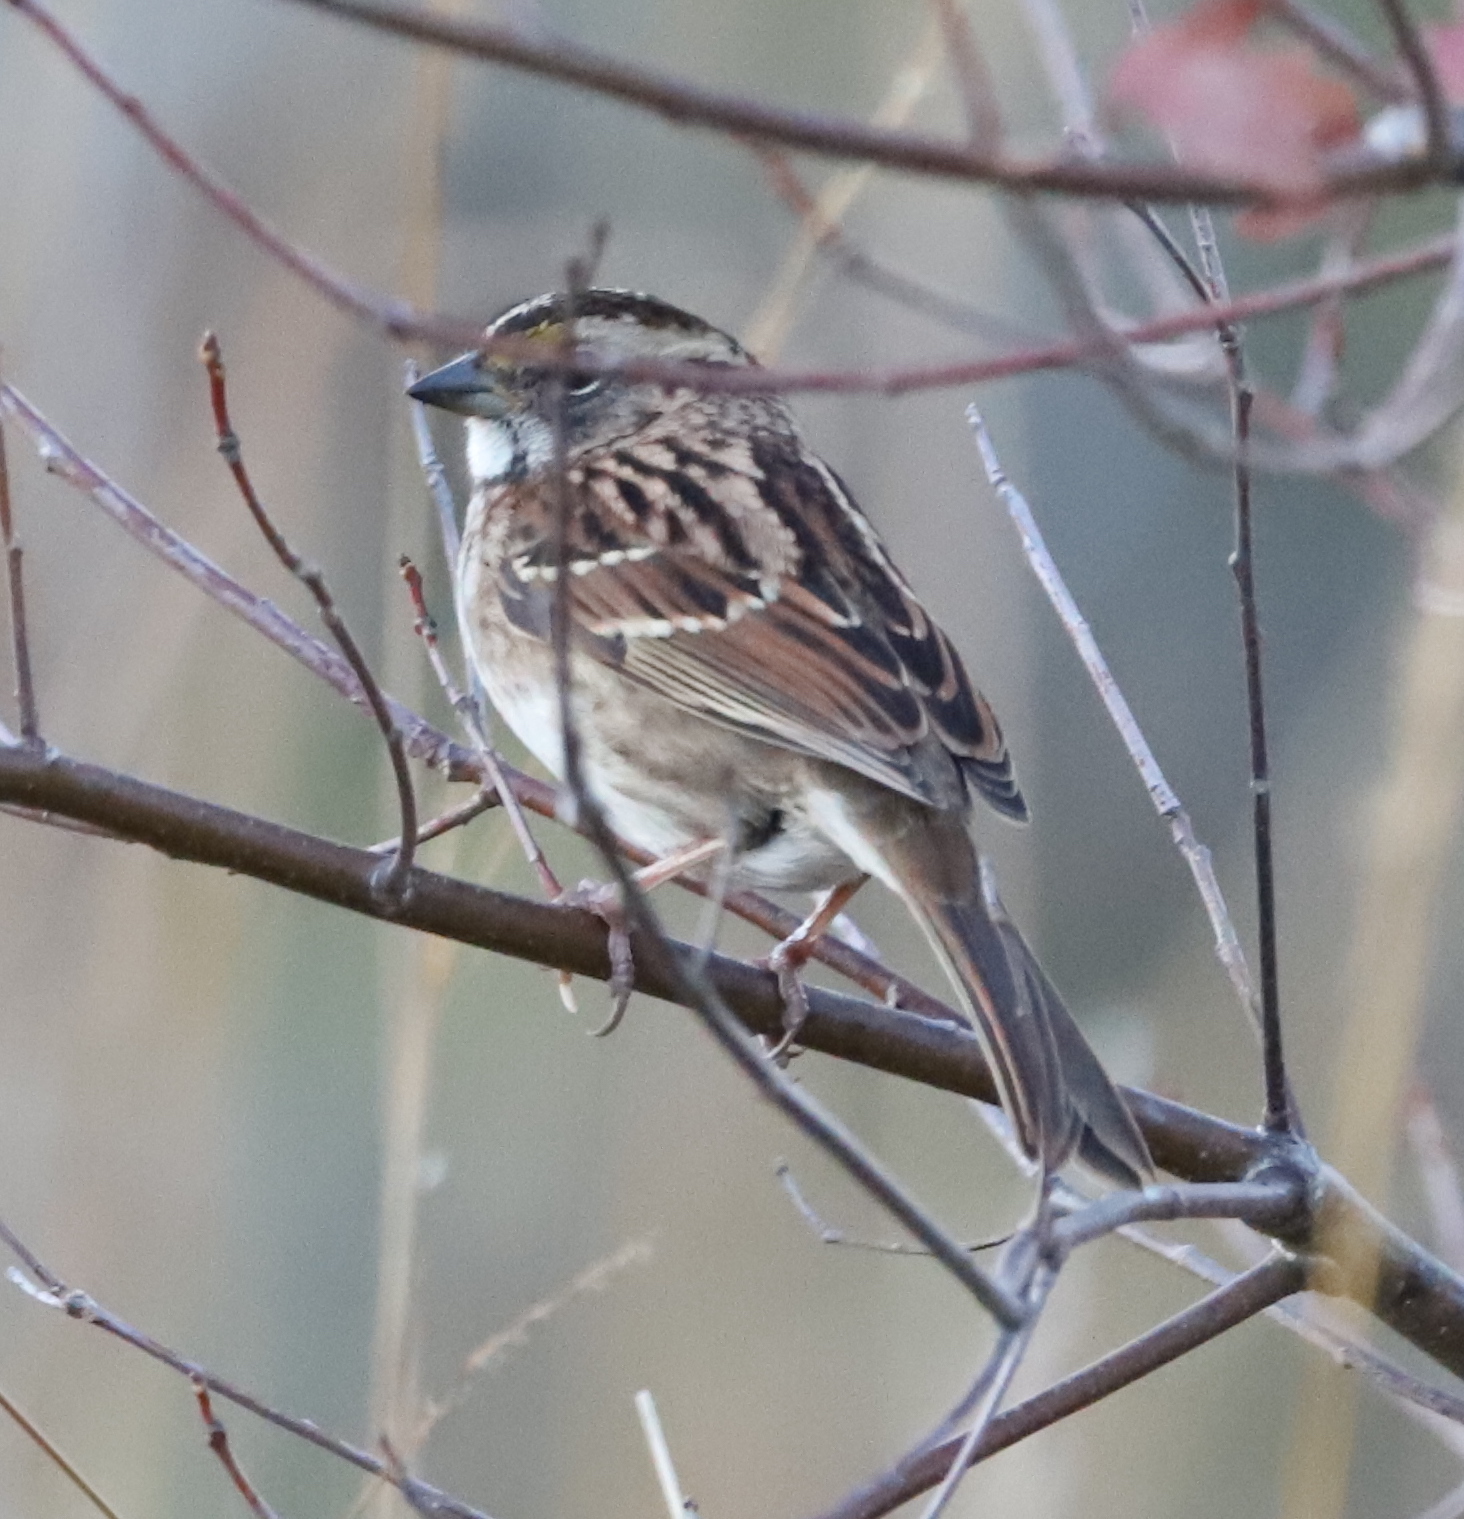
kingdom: Animalia
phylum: Chordata
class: Aves
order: Passeriformes
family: Passerellidae
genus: Zonotrichia
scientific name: Zonotrichia albicollis
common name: White-throated sparrow
